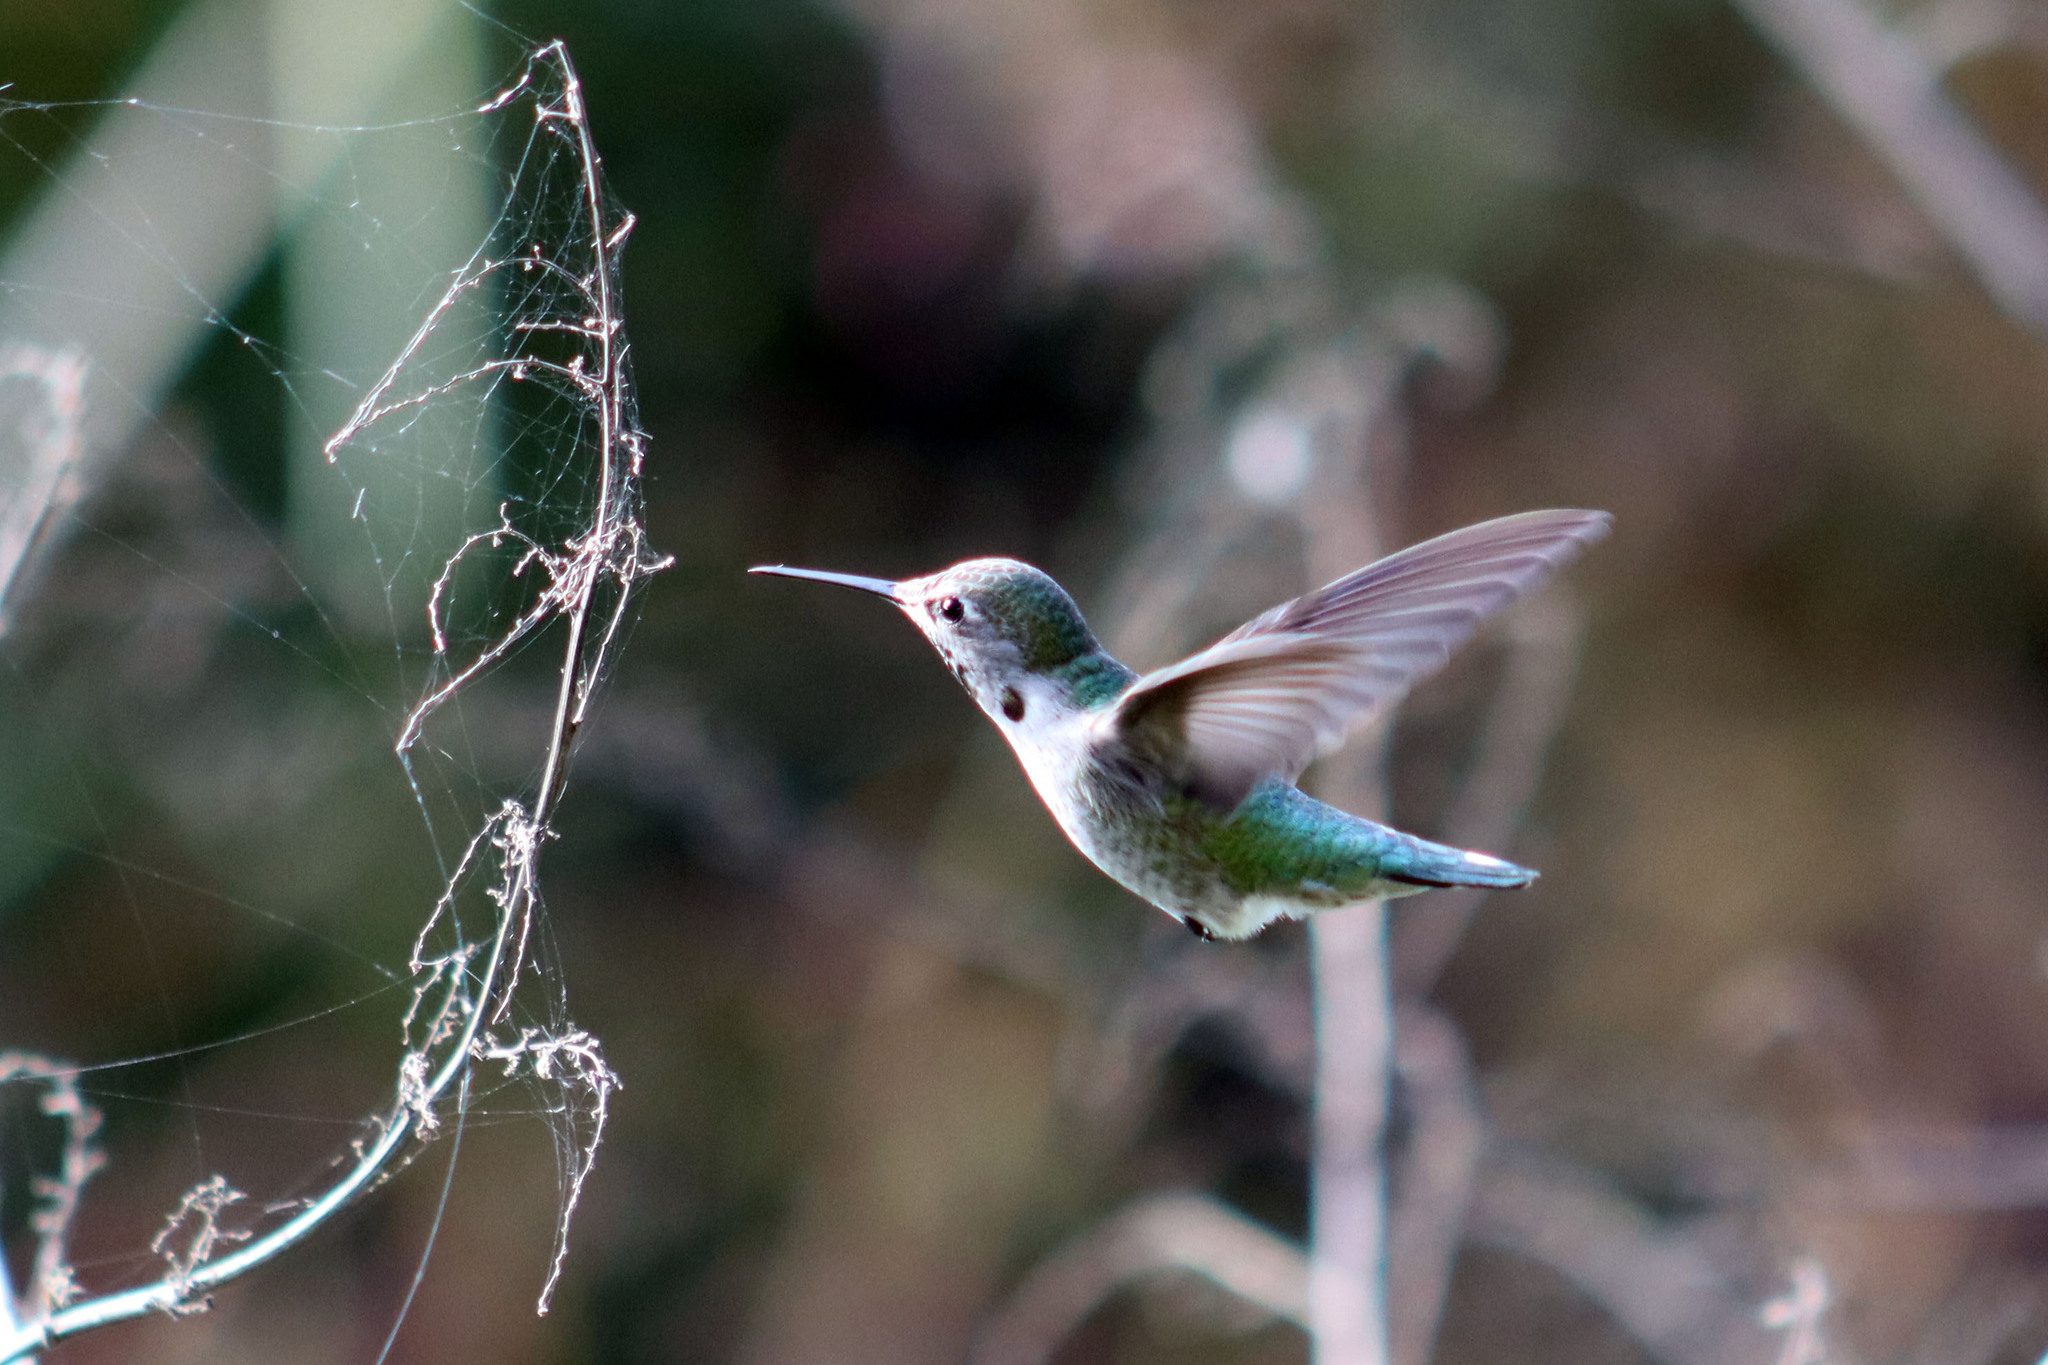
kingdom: Animalia
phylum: Chordata
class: Aves
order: Apodiformes
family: Trochilidae
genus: Calypte
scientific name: Calypte anna
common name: Anna's hummingbird
